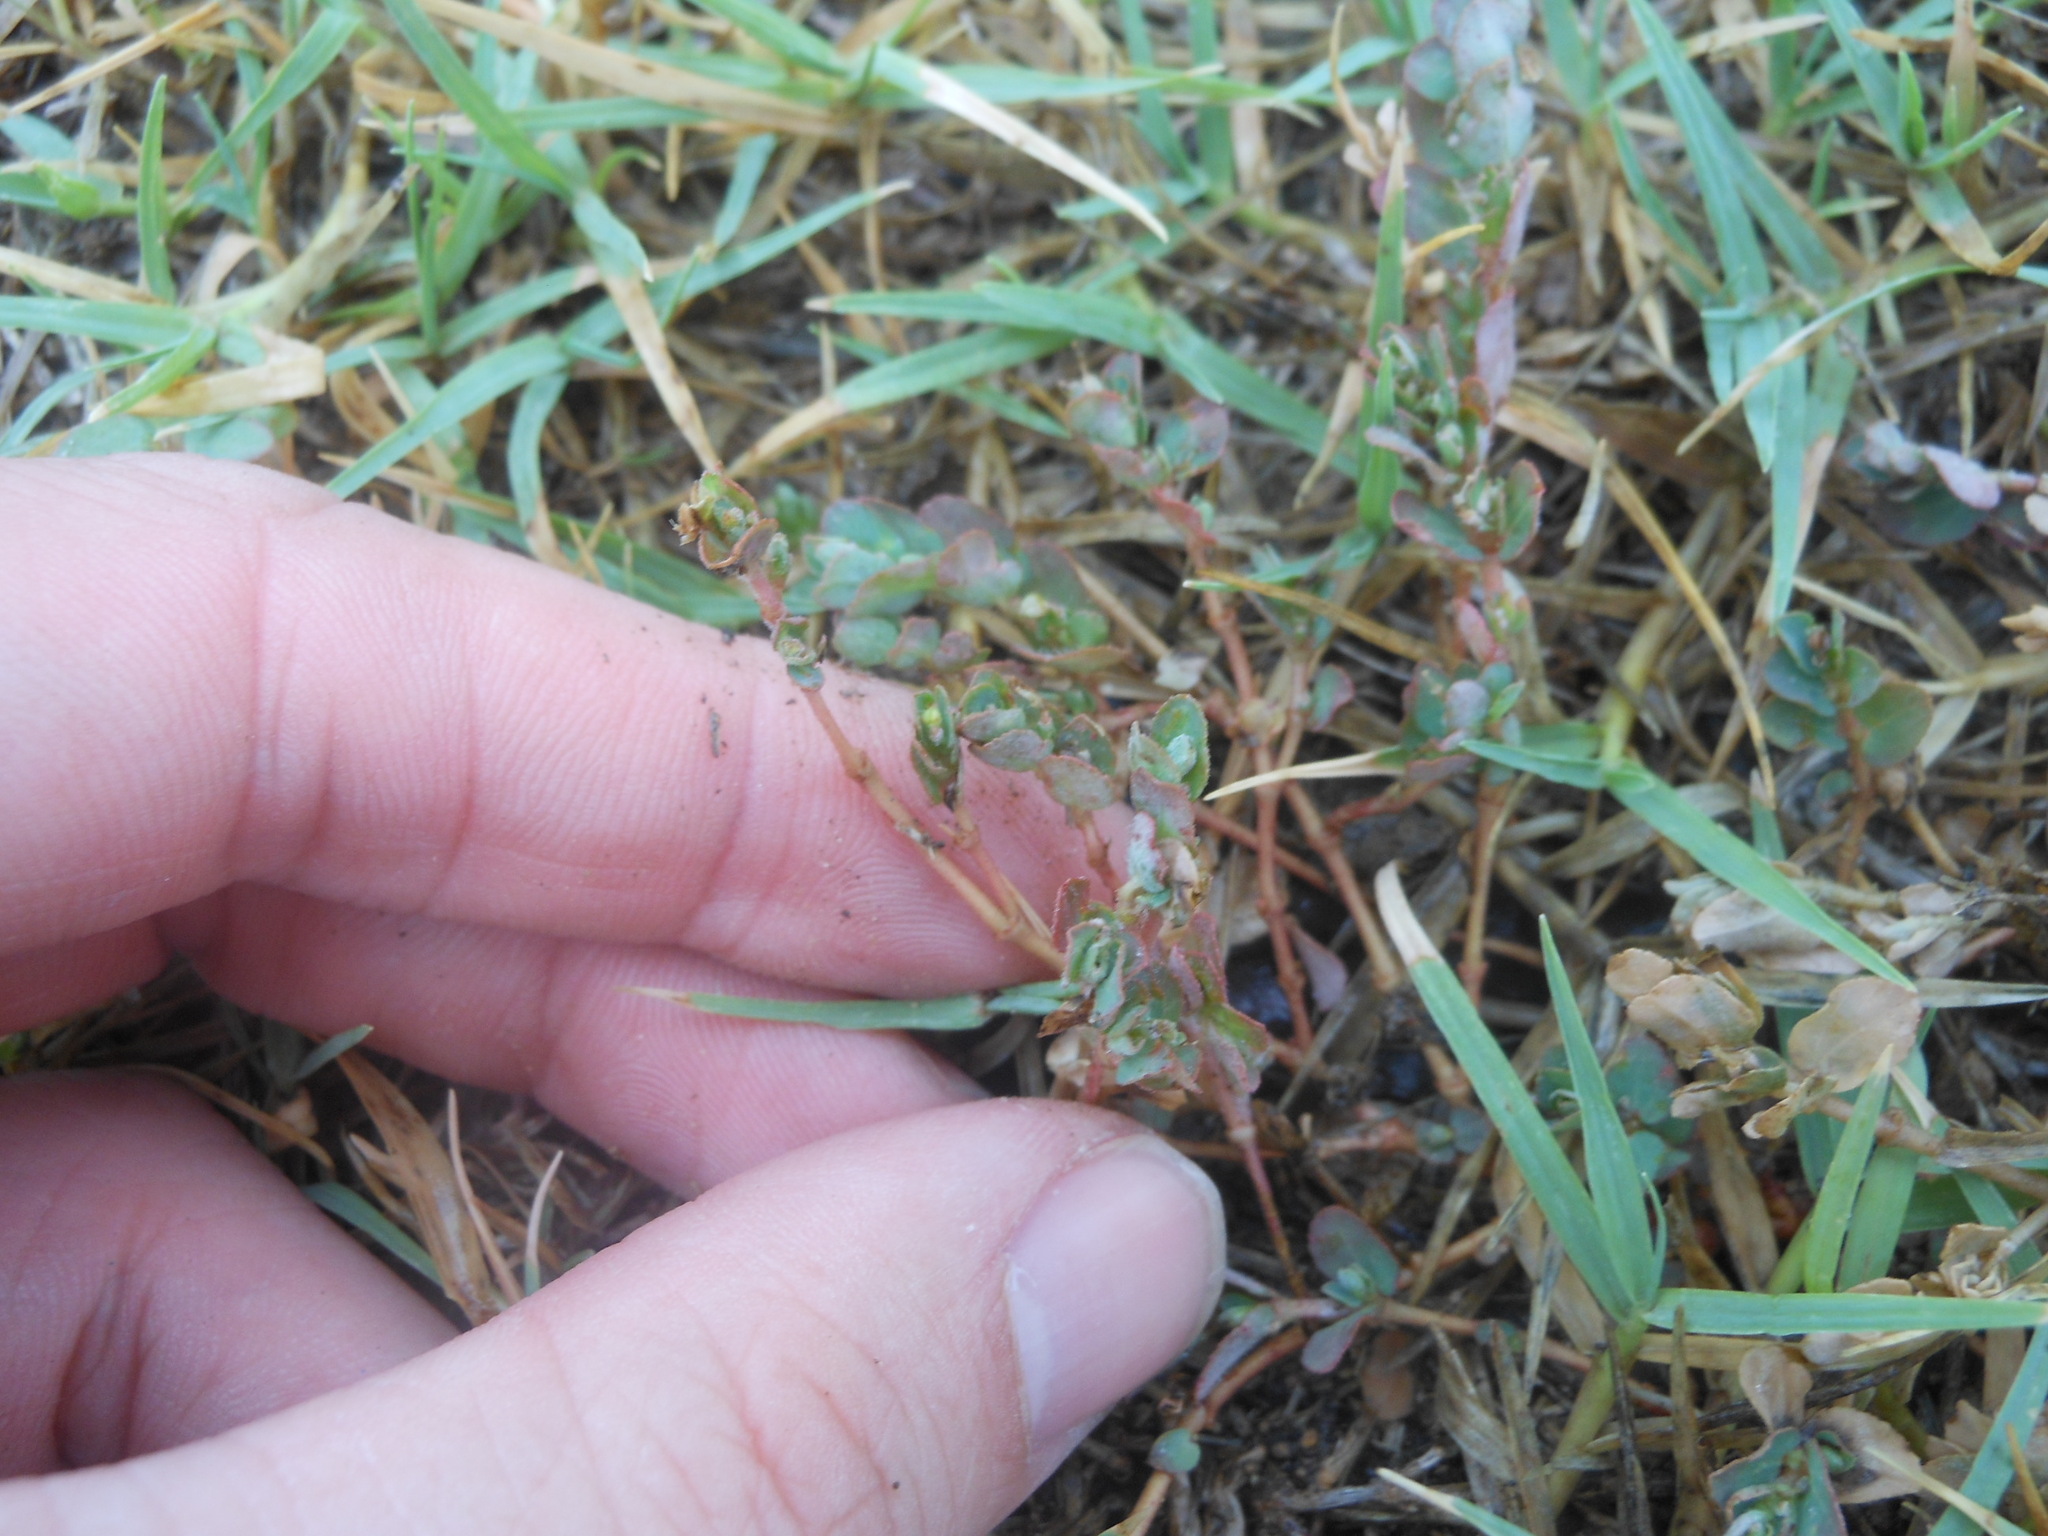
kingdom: Plantae
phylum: Tracheophyta
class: Magnoliopsida
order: Malpighiales
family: Euphorbiaceae
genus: Euphorbia
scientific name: Euphorbia prostrata
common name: Prostrate sandmat
